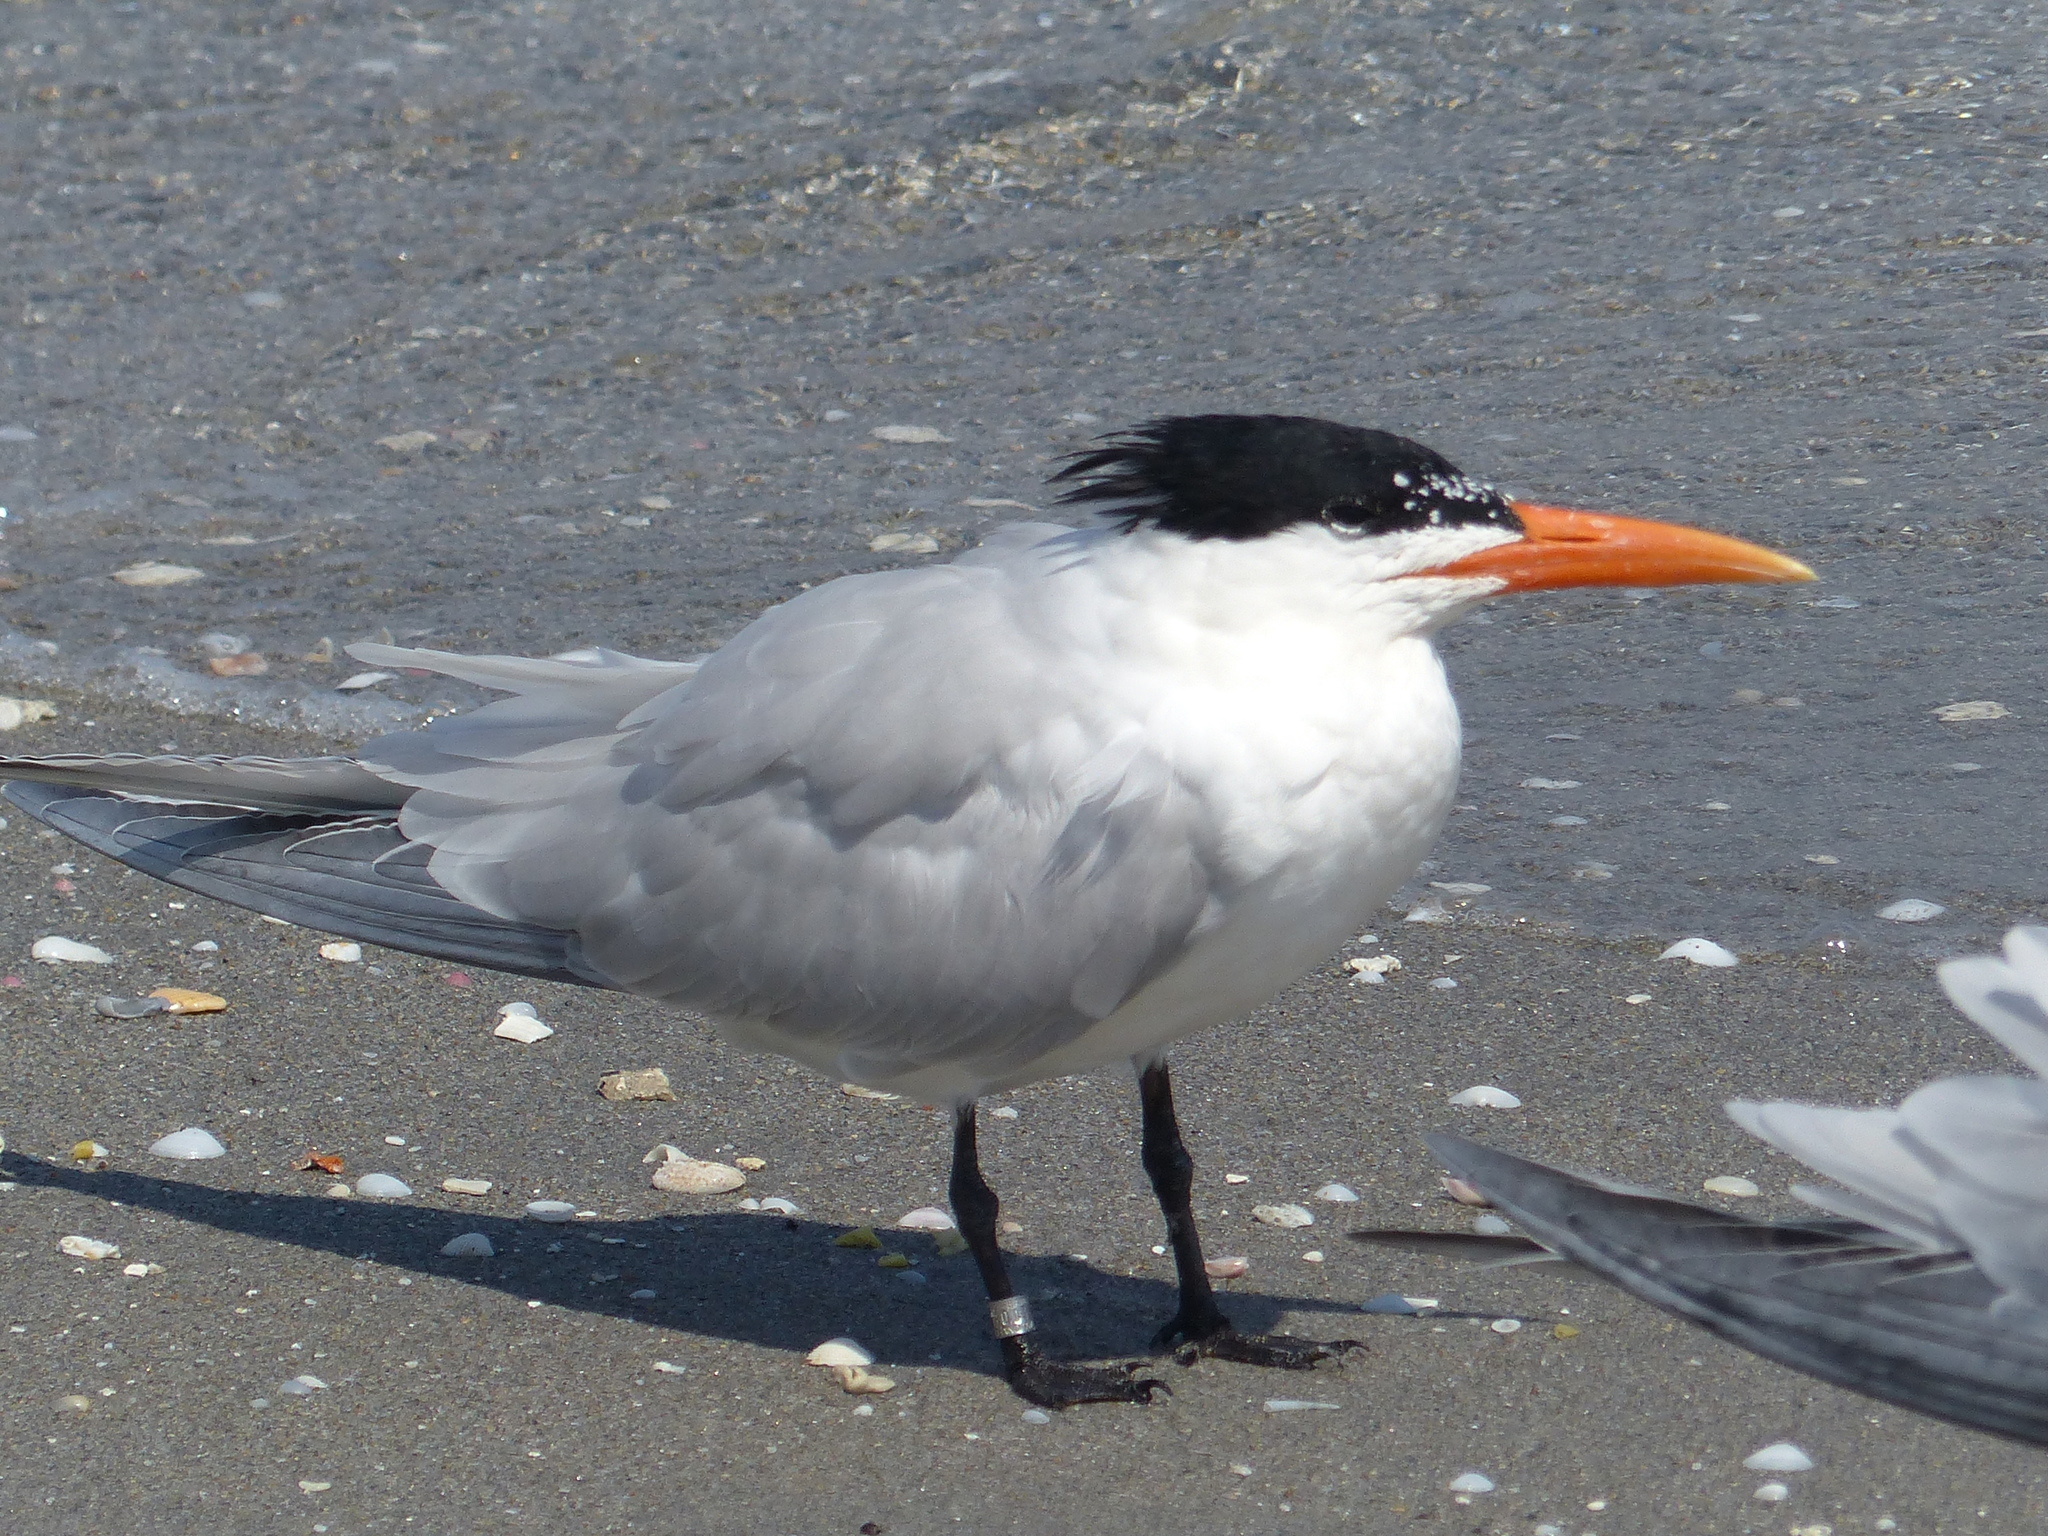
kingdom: Animalia
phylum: Chordata
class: Aves
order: Charadriiformes
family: Laridae
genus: Thalasseus
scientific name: Thalasseus maximus
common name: Royal tern
